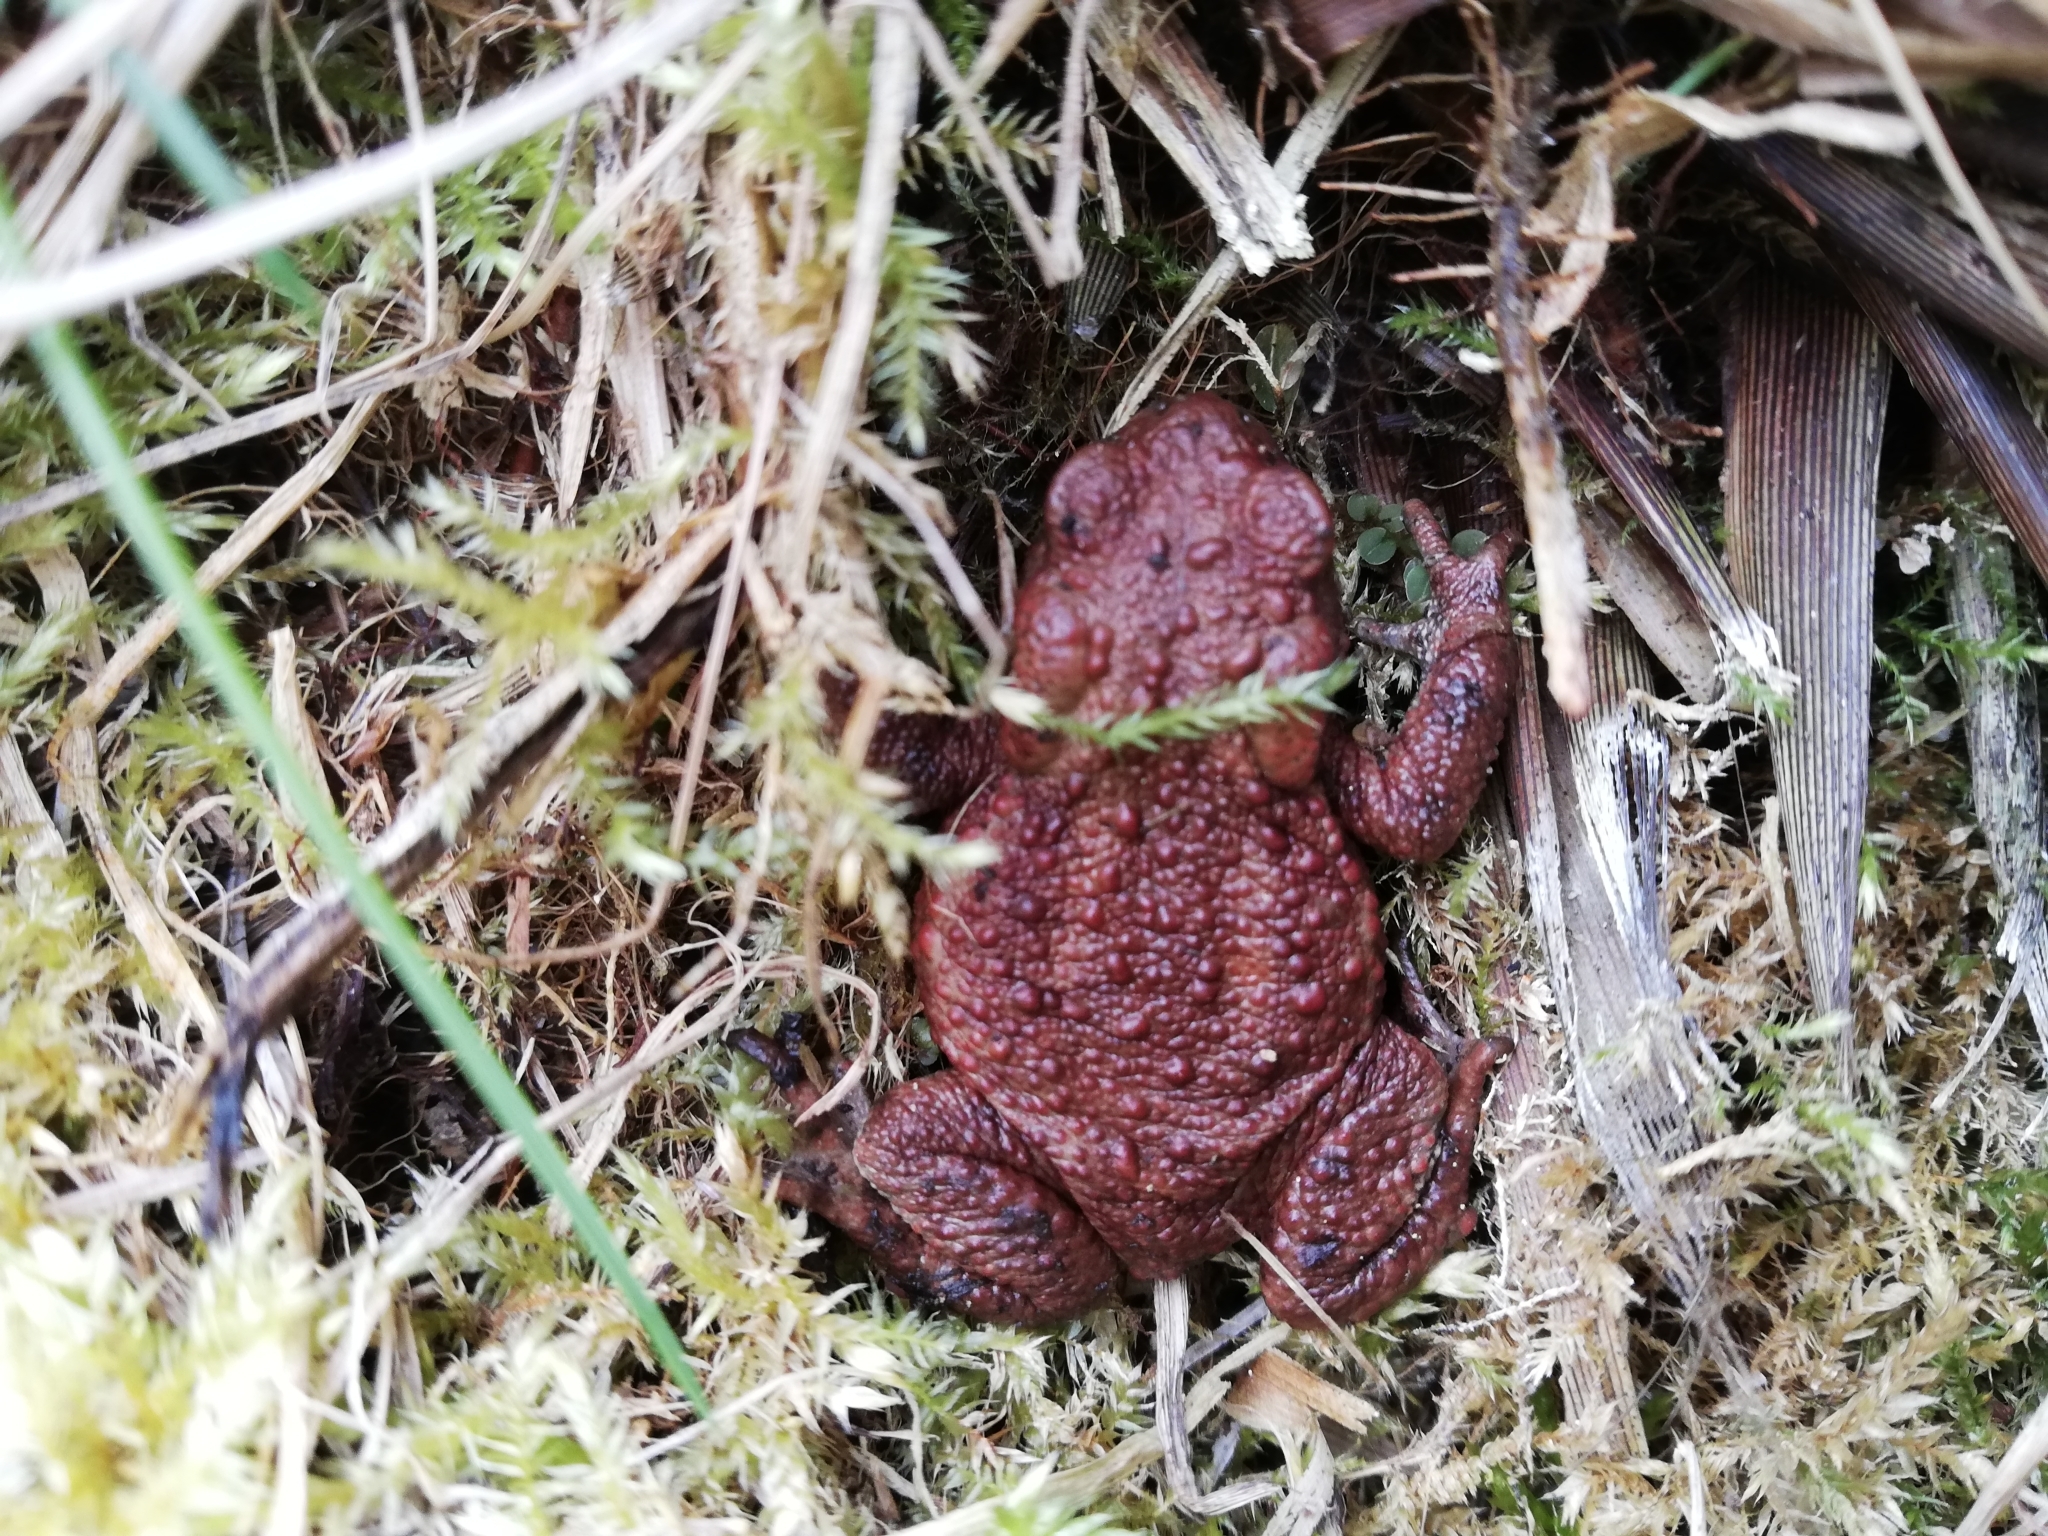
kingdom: Animalia
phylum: Chordata
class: Amphibia
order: Anura
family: Bufonidae
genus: Bufo
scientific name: Bufo bufo
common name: Common toad
